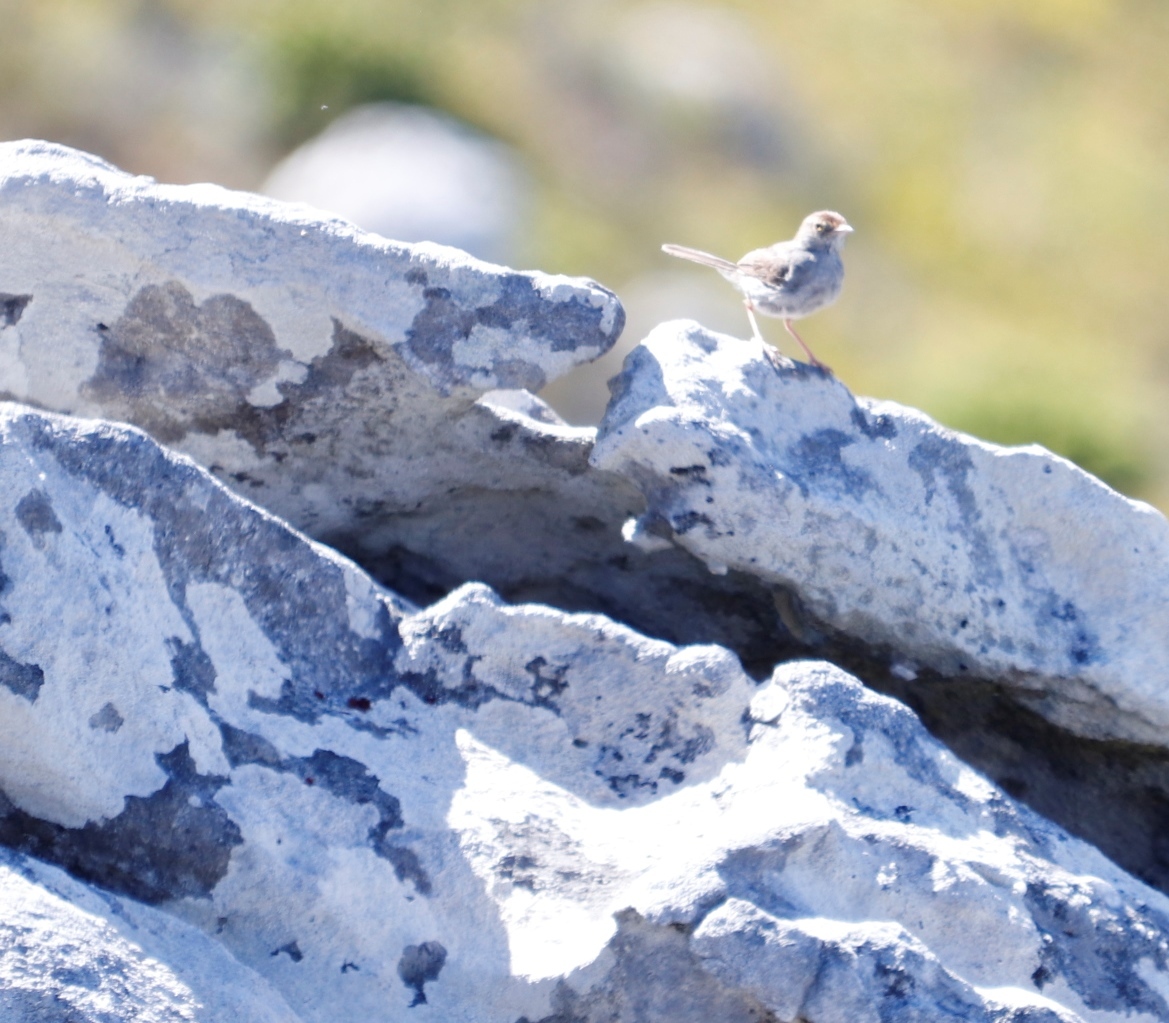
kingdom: Animalia
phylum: Chordata
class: Aves
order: Passeriformes
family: Cisticolidae
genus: Cisticola
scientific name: Cisticola fulvicapilla
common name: Neddicky
